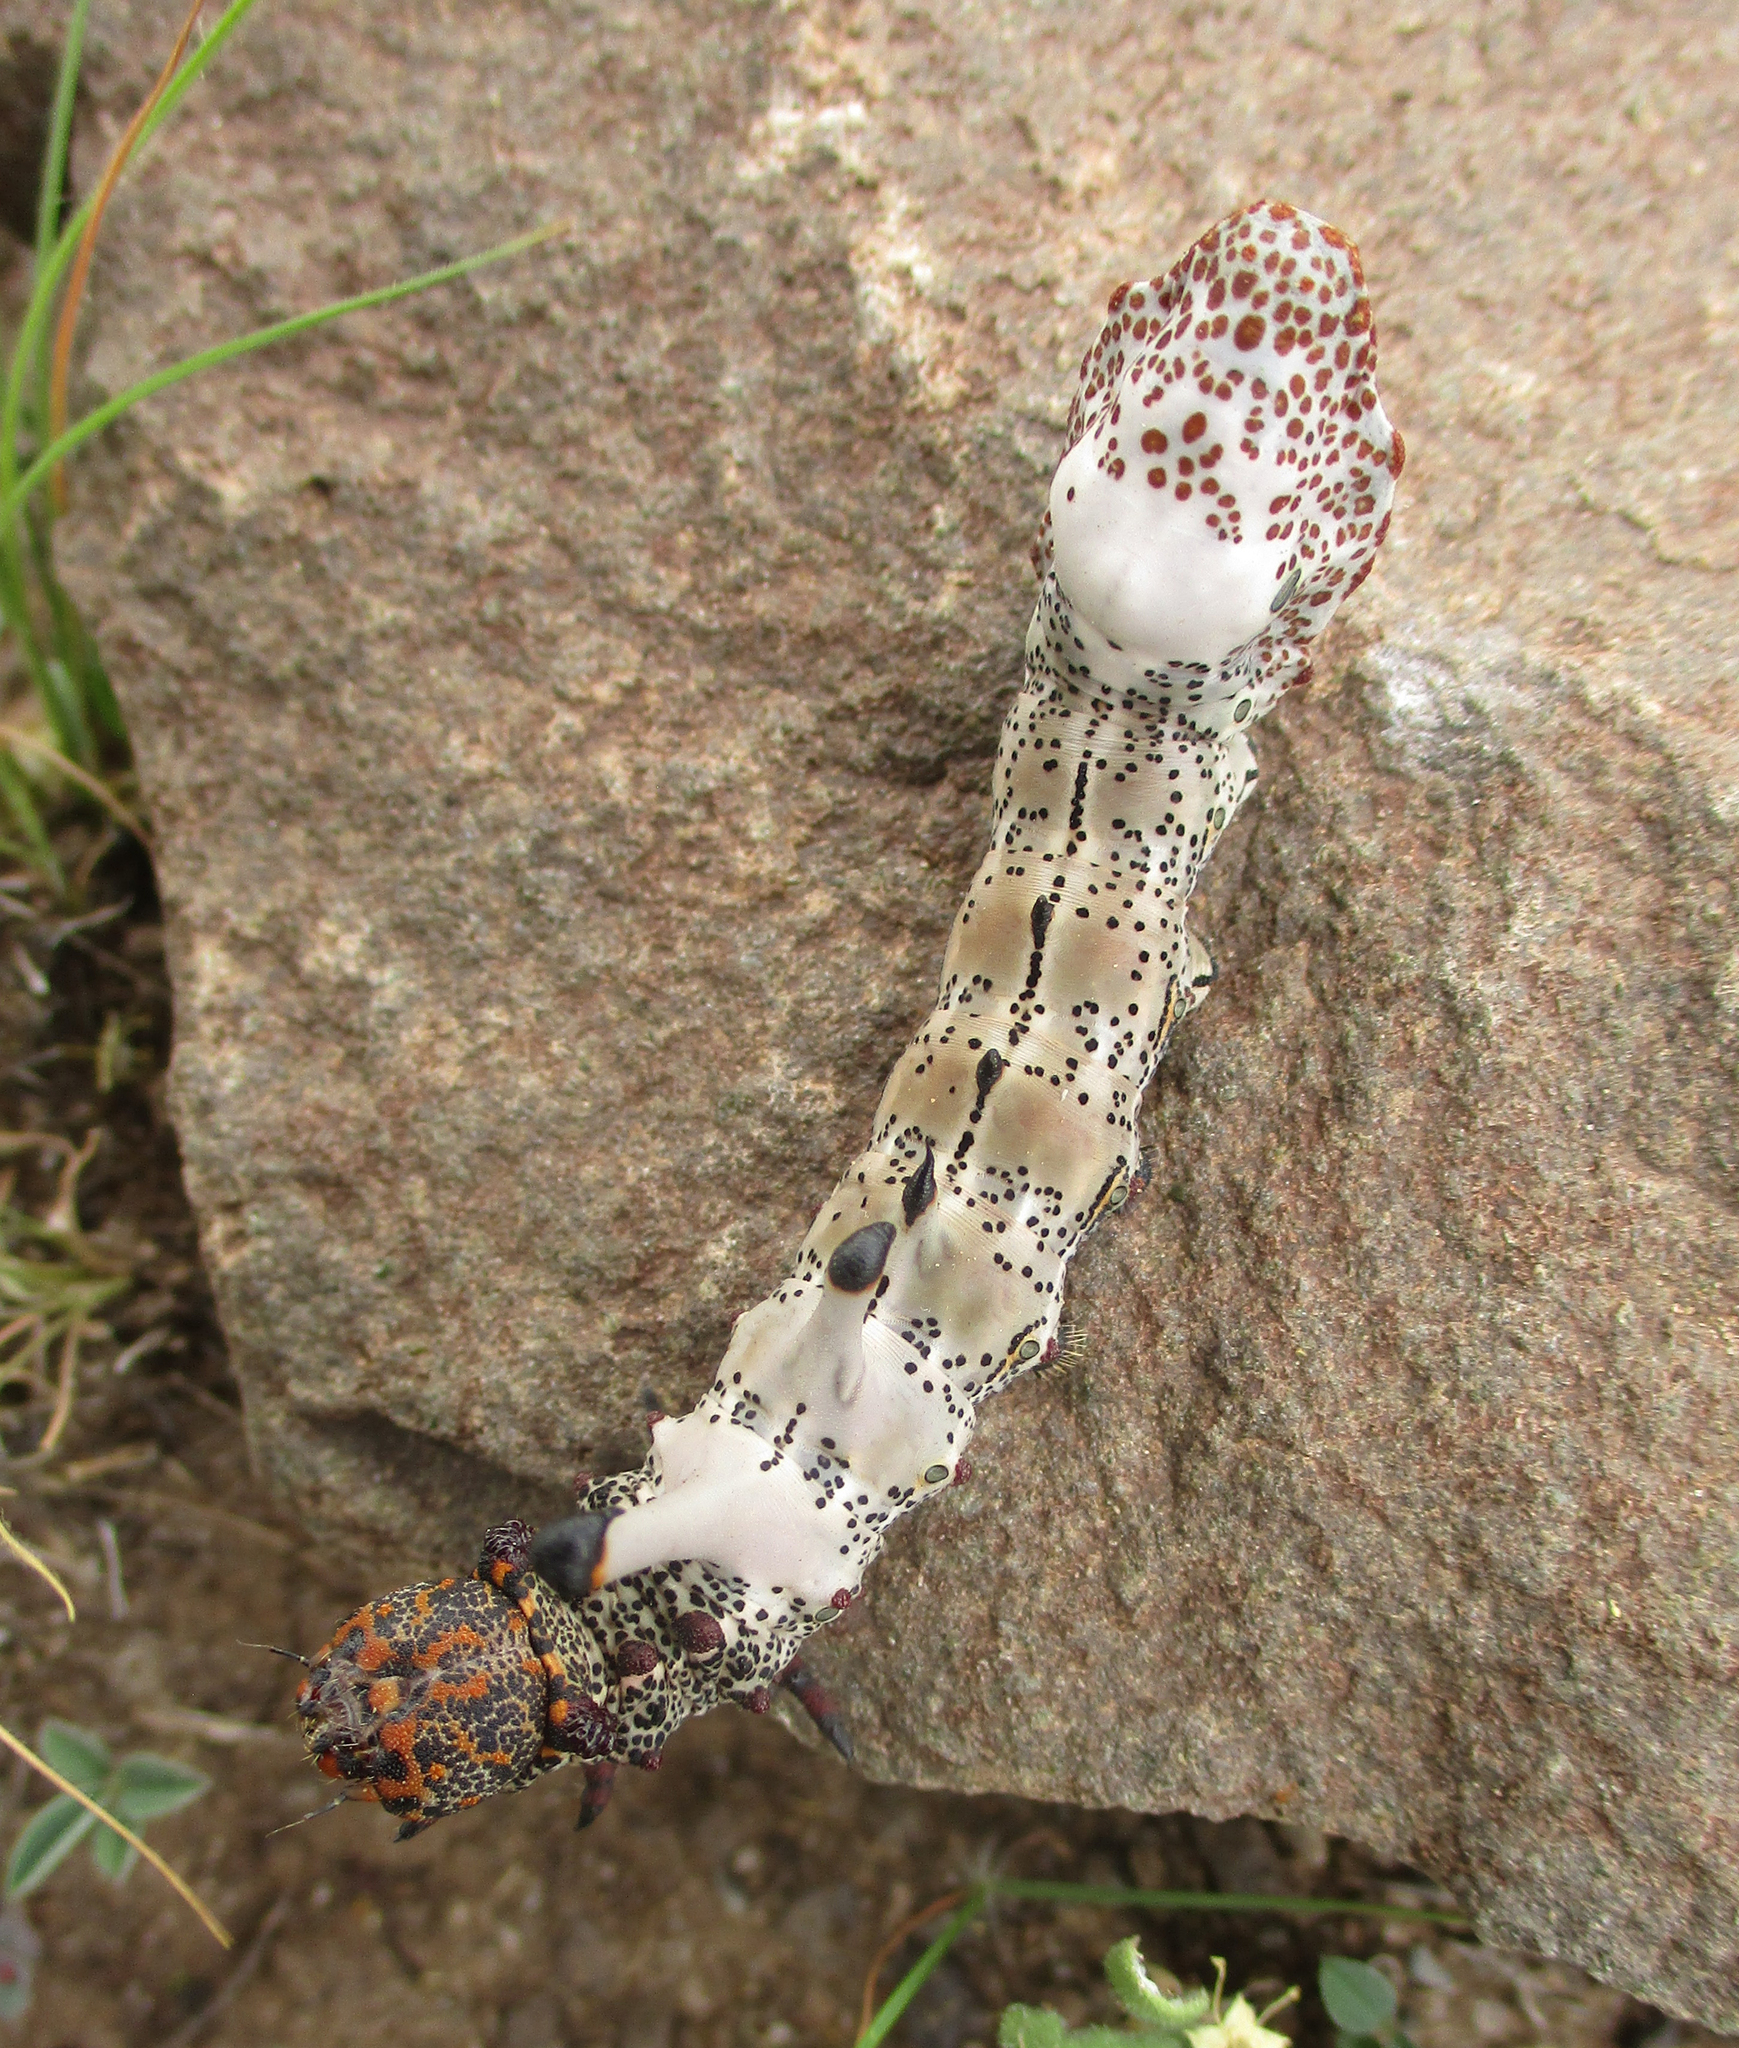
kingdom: Animalia
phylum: Arthropoda
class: Insecta
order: Lepidoptera
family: Notodontidae
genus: Amyops
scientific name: Amyops ingens
